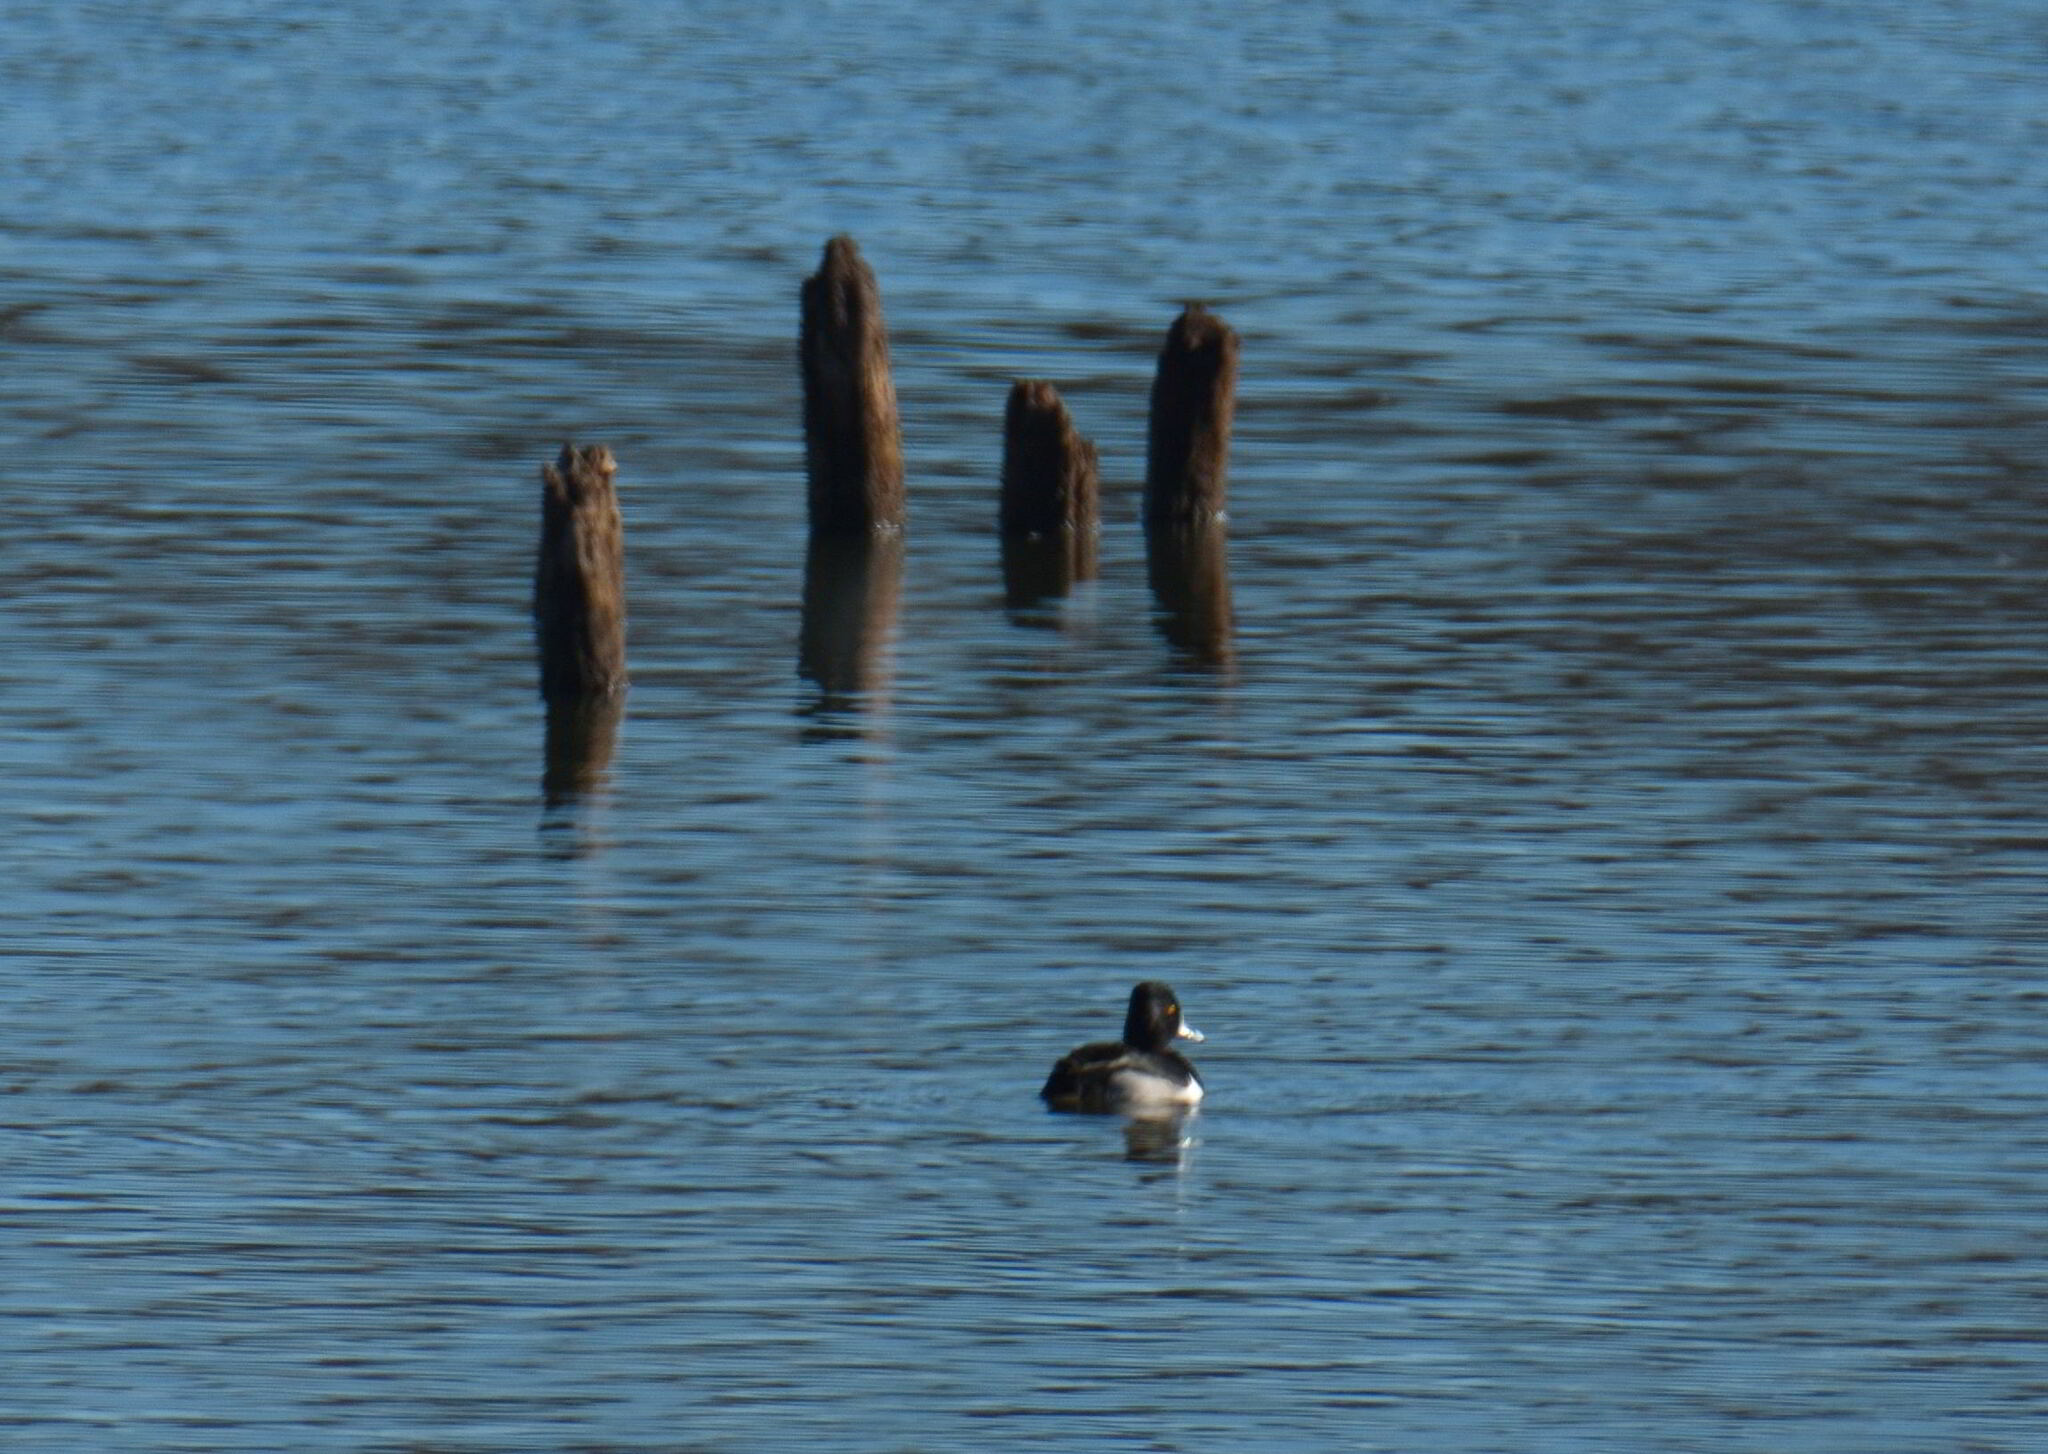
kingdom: Animalia
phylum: Chordata
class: Aves
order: Anseriformes
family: Anatidae
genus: Aythya
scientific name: Aythya collaris
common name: Ring-necked duck
